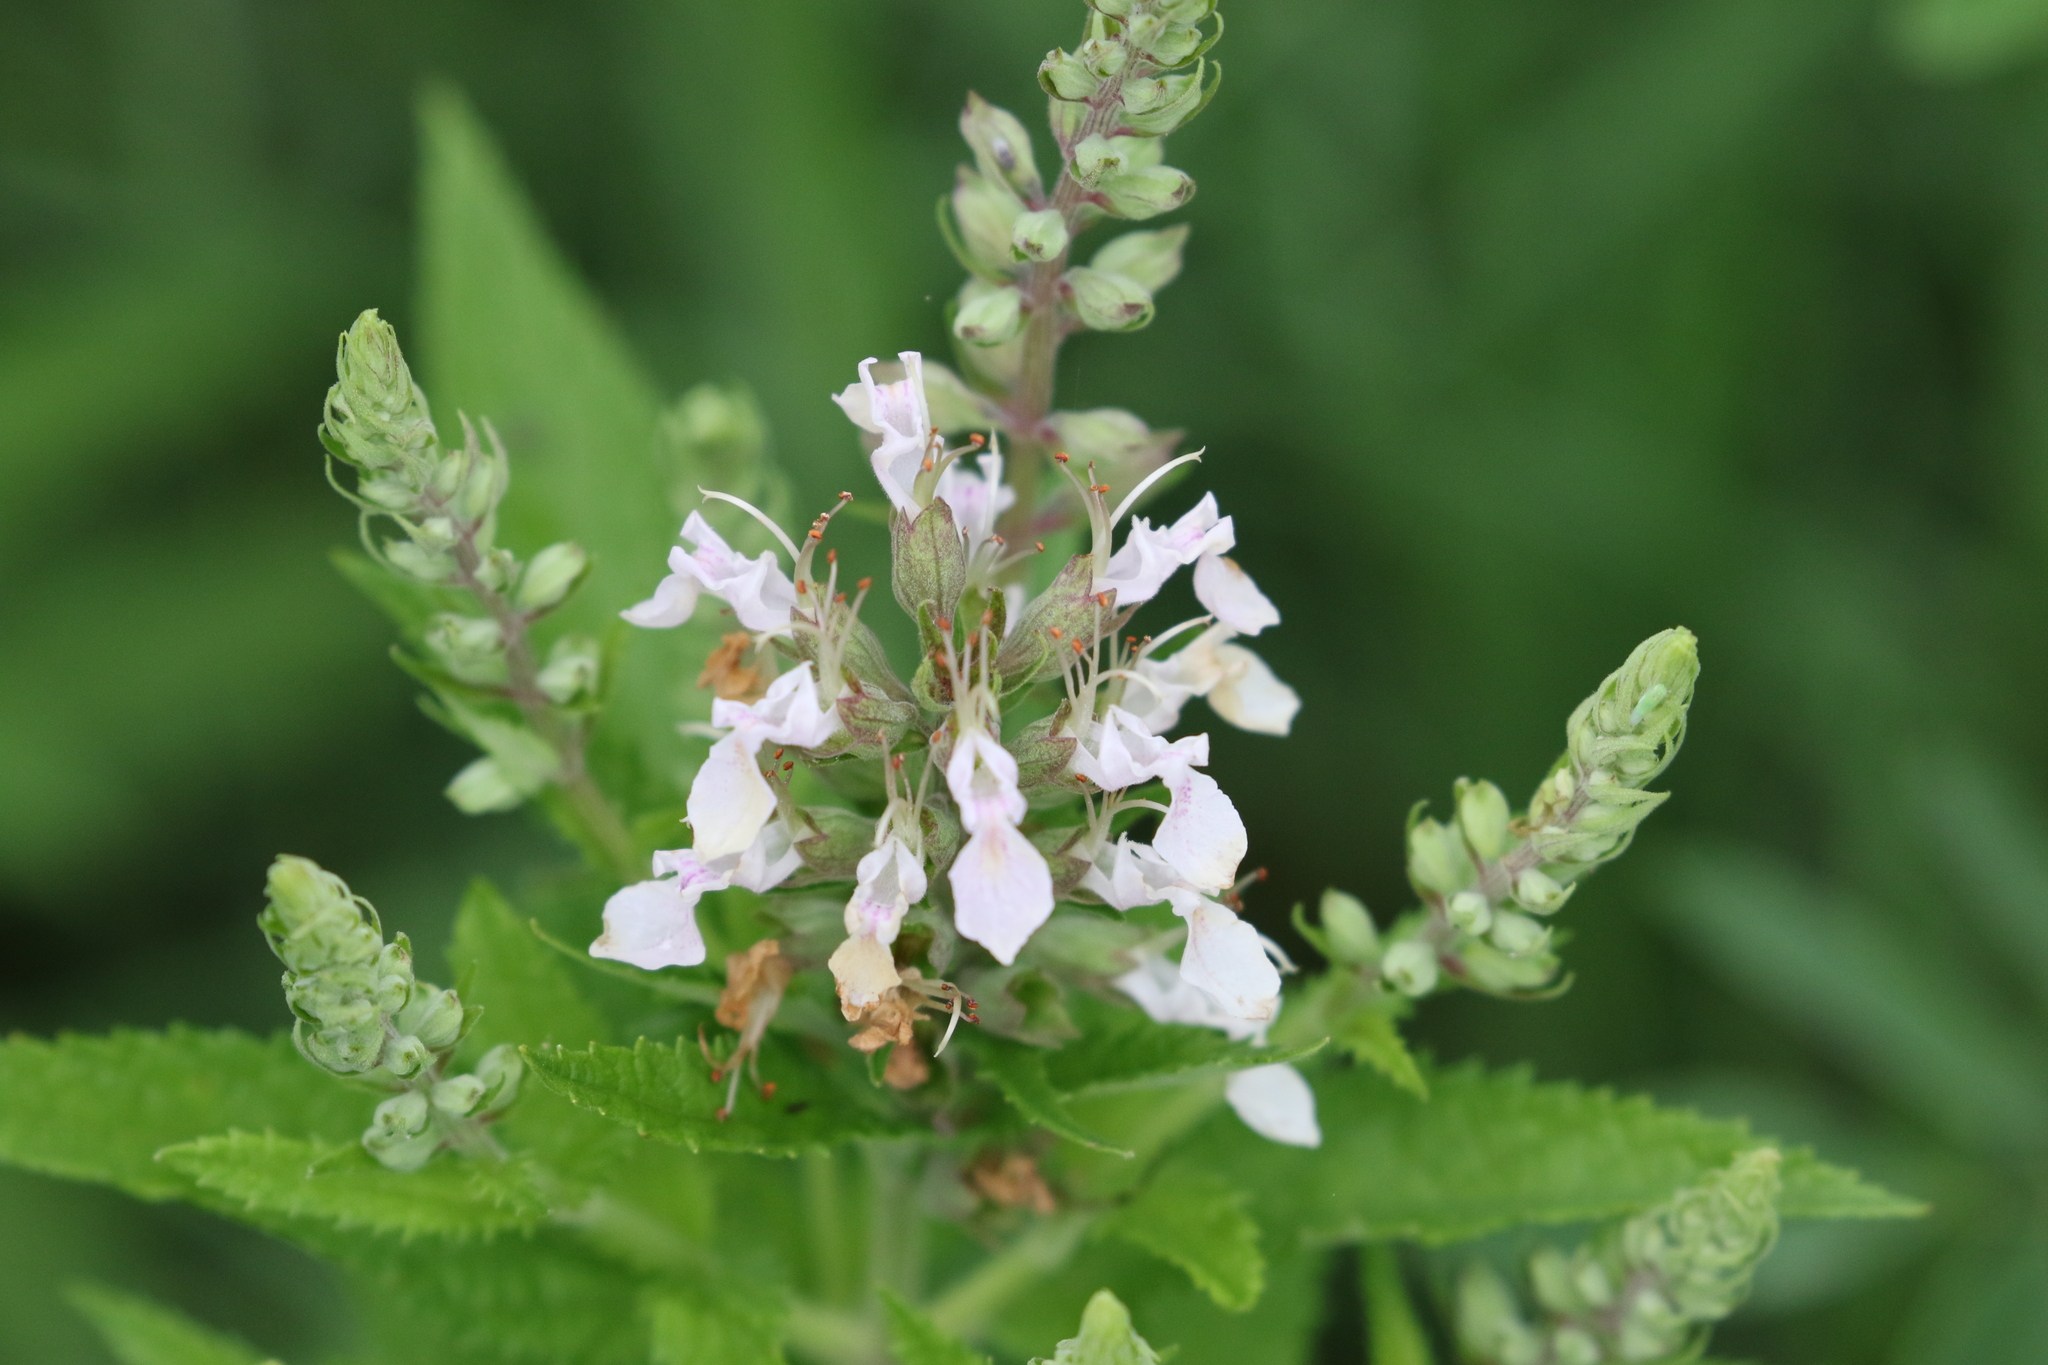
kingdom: Plantae
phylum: Tracheophyta
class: Magnoliopsida
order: Lamiales
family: Lamiaceae
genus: Teucrium
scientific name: Teucrium canadense
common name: American germander
